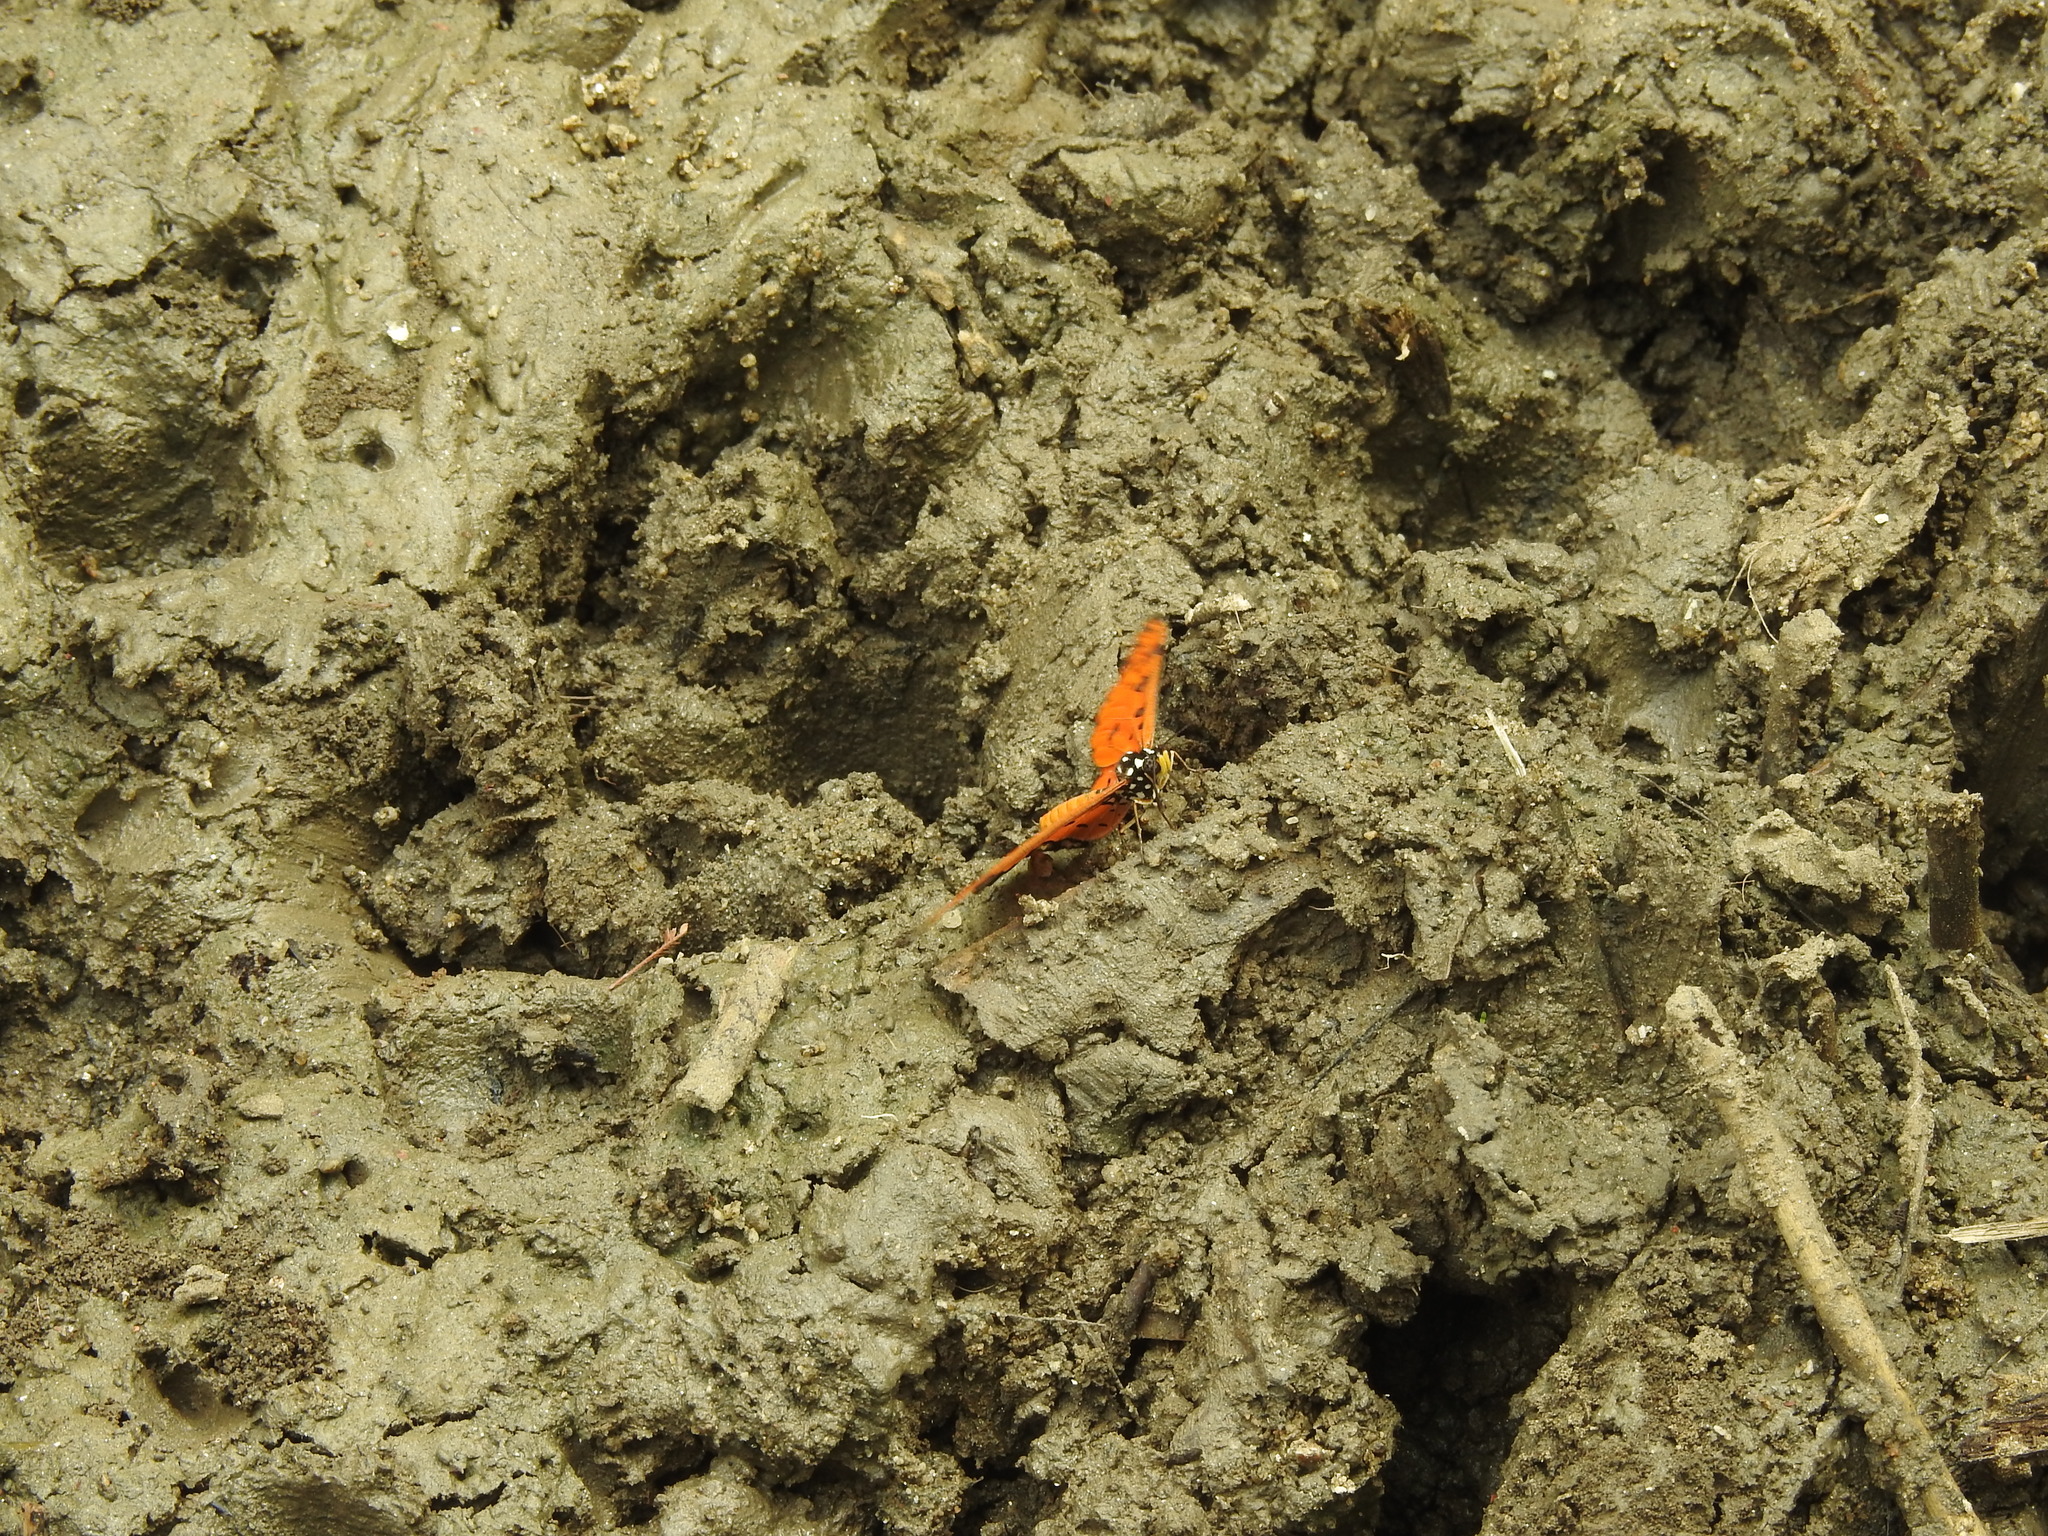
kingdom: Animalia
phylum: Arthropoda
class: Insecta
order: Lepidoptera
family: Nymphalidae
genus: Acraea
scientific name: Acraea terpsicore
